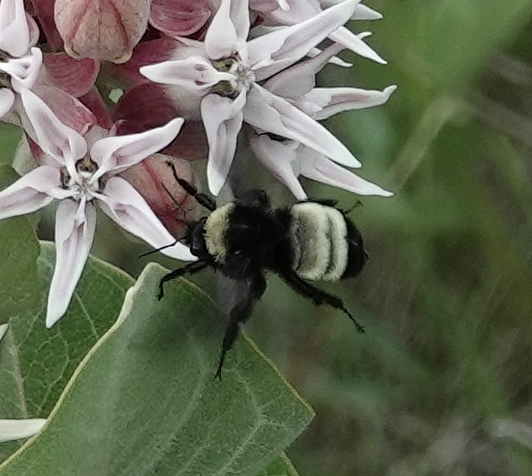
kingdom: Animalia
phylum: Arthropoda
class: Insecta
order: Hymenoptera
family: Apidae
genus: Bombus
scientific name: Bombus pensylvanicus
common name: Bumble bee
